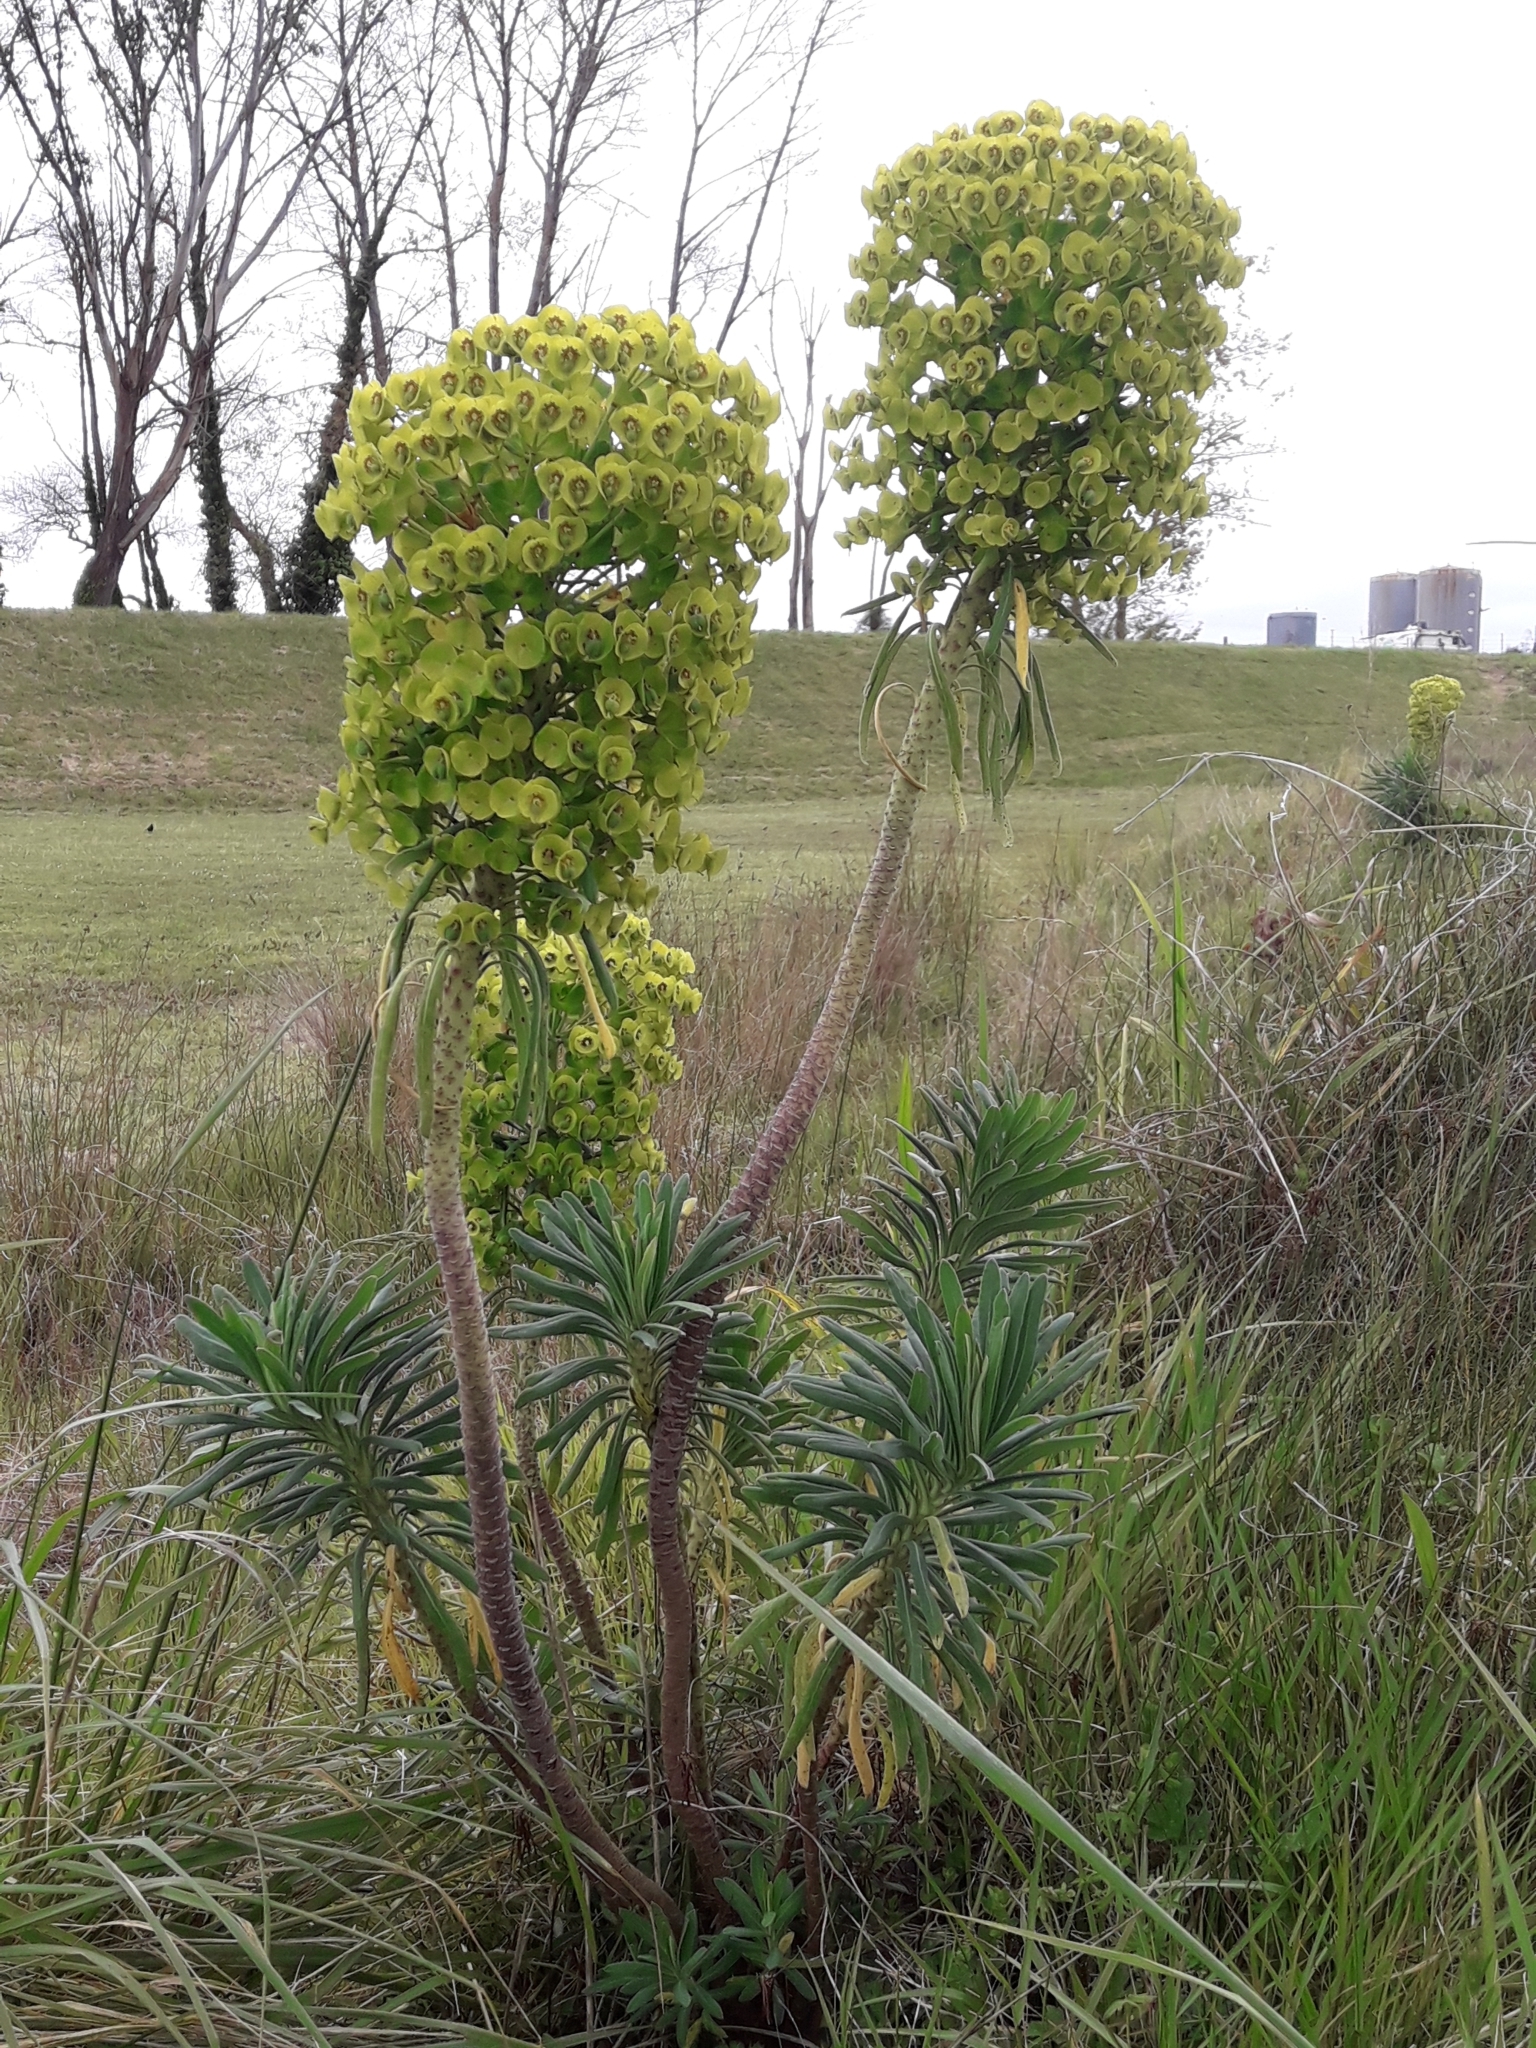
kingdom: Plantae
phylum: Tracheophyta
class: Magnoliopsida
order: Malpighiales
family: Euphorbiaceae
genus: Euphorbia
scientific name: Euphorbia characias
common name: Mediterranean spurge
